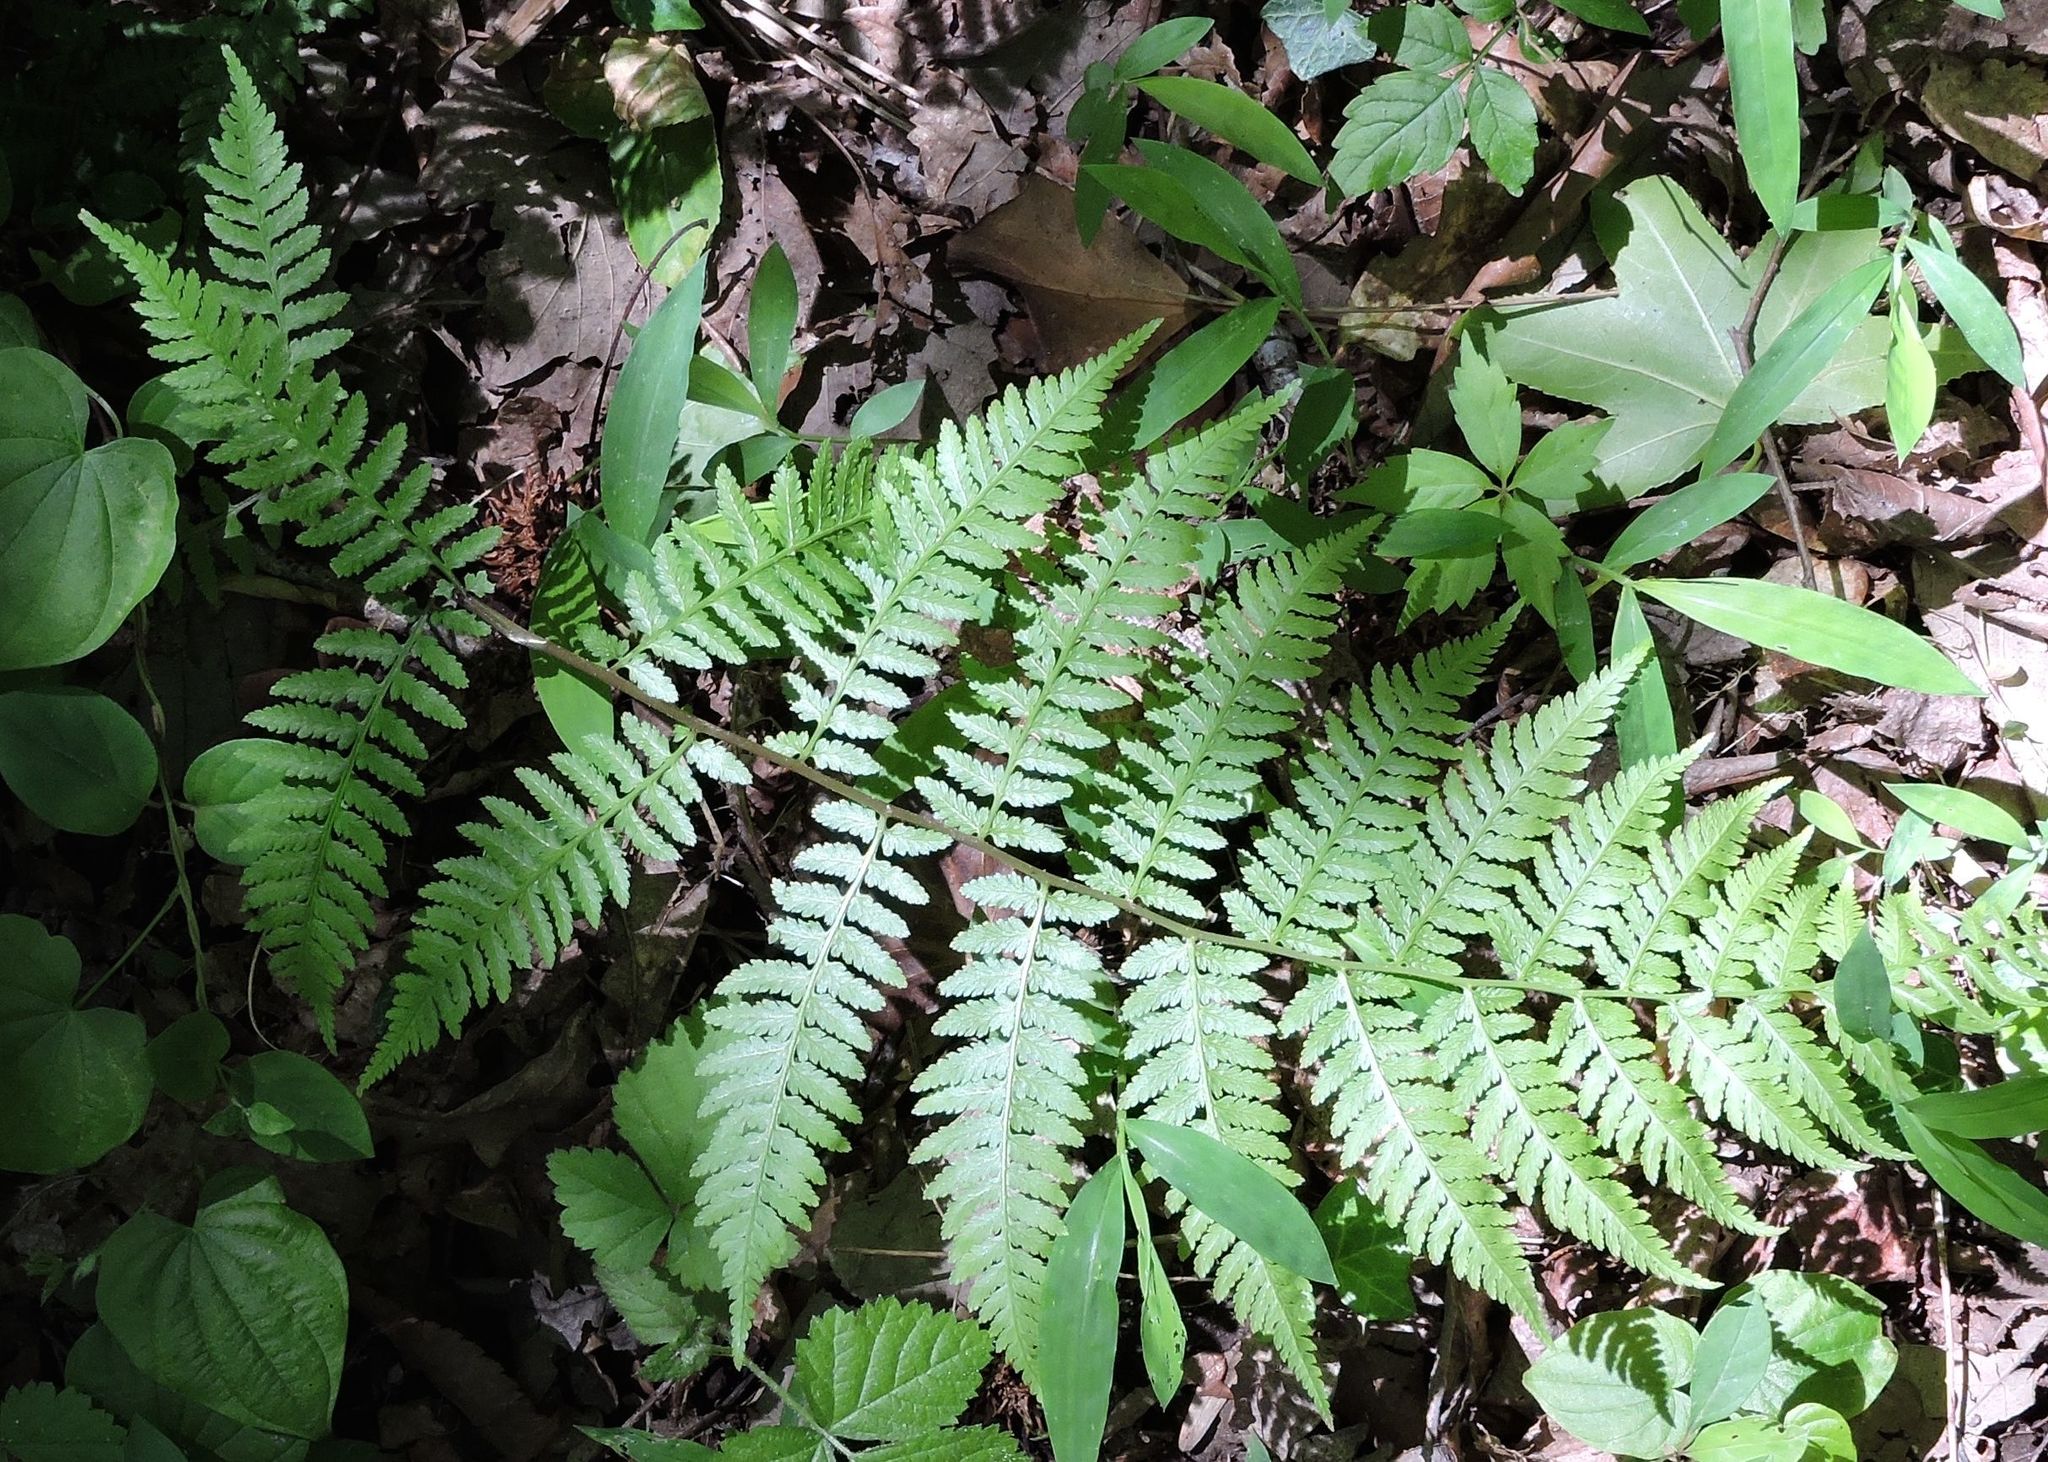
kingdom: Plantae
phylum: Tracheophyta
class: Polypodiopsida
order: Polypodiales
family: Athyriaceae
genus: Athyrium
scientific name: Athyrium asplenioides
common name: Southern lady fern
